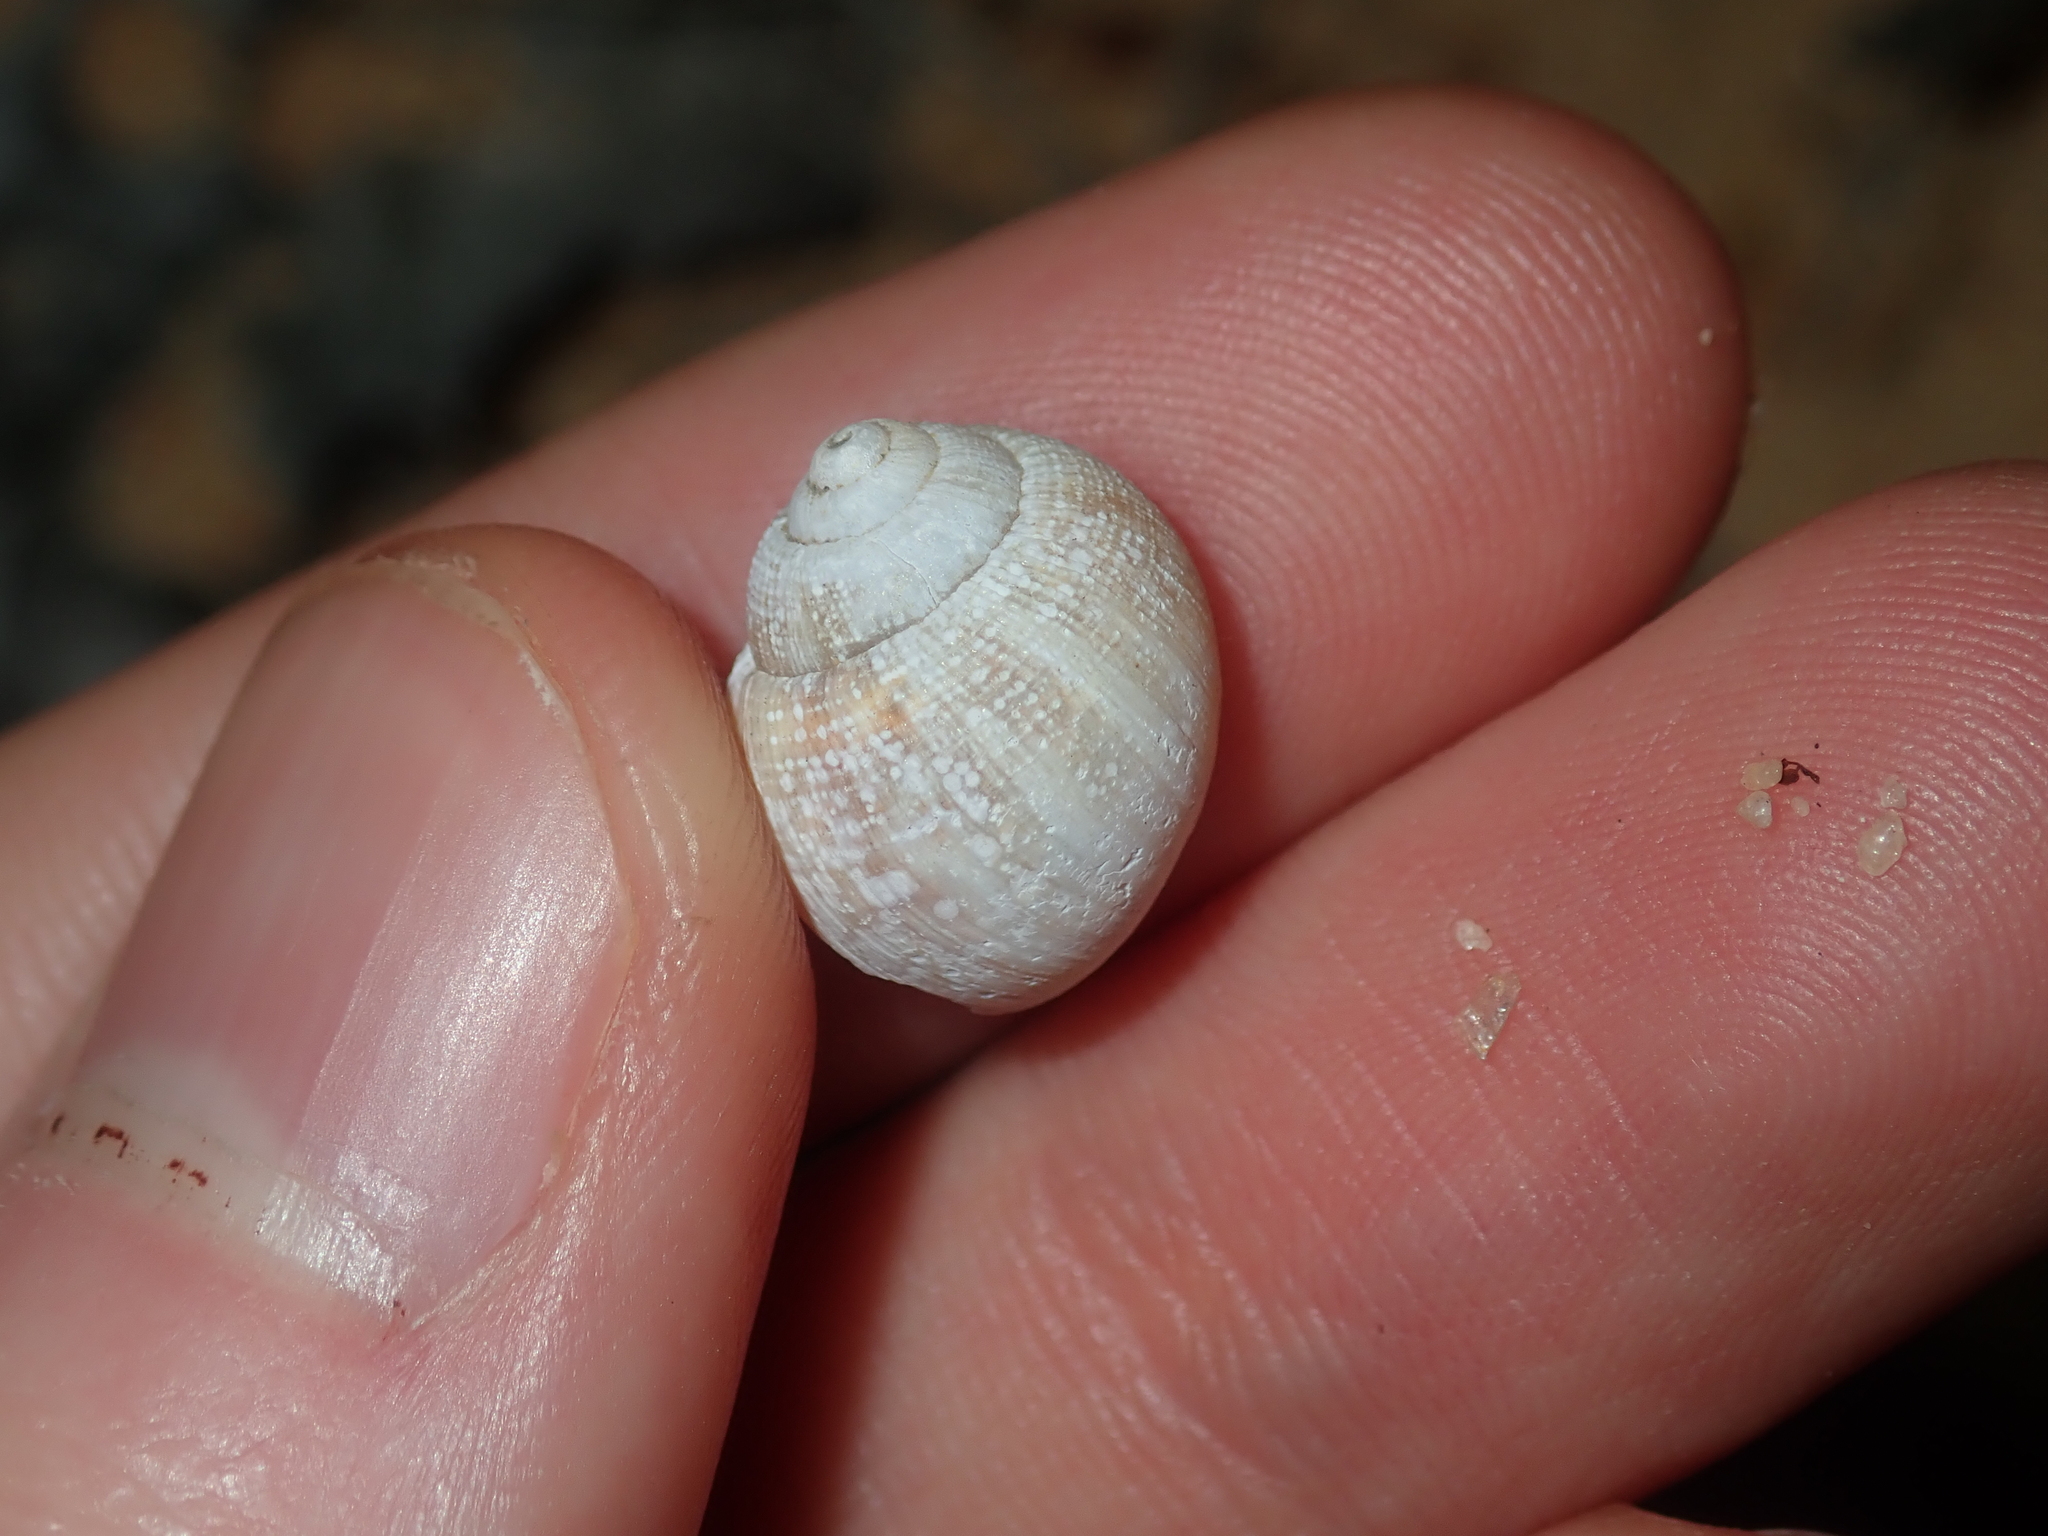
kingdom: Animalia
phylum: Mollusca
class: Gastropoda
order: Stylommatophora
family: Bothriembryontidae
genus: Bothriembryon
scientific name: Bothriembryon grohi
